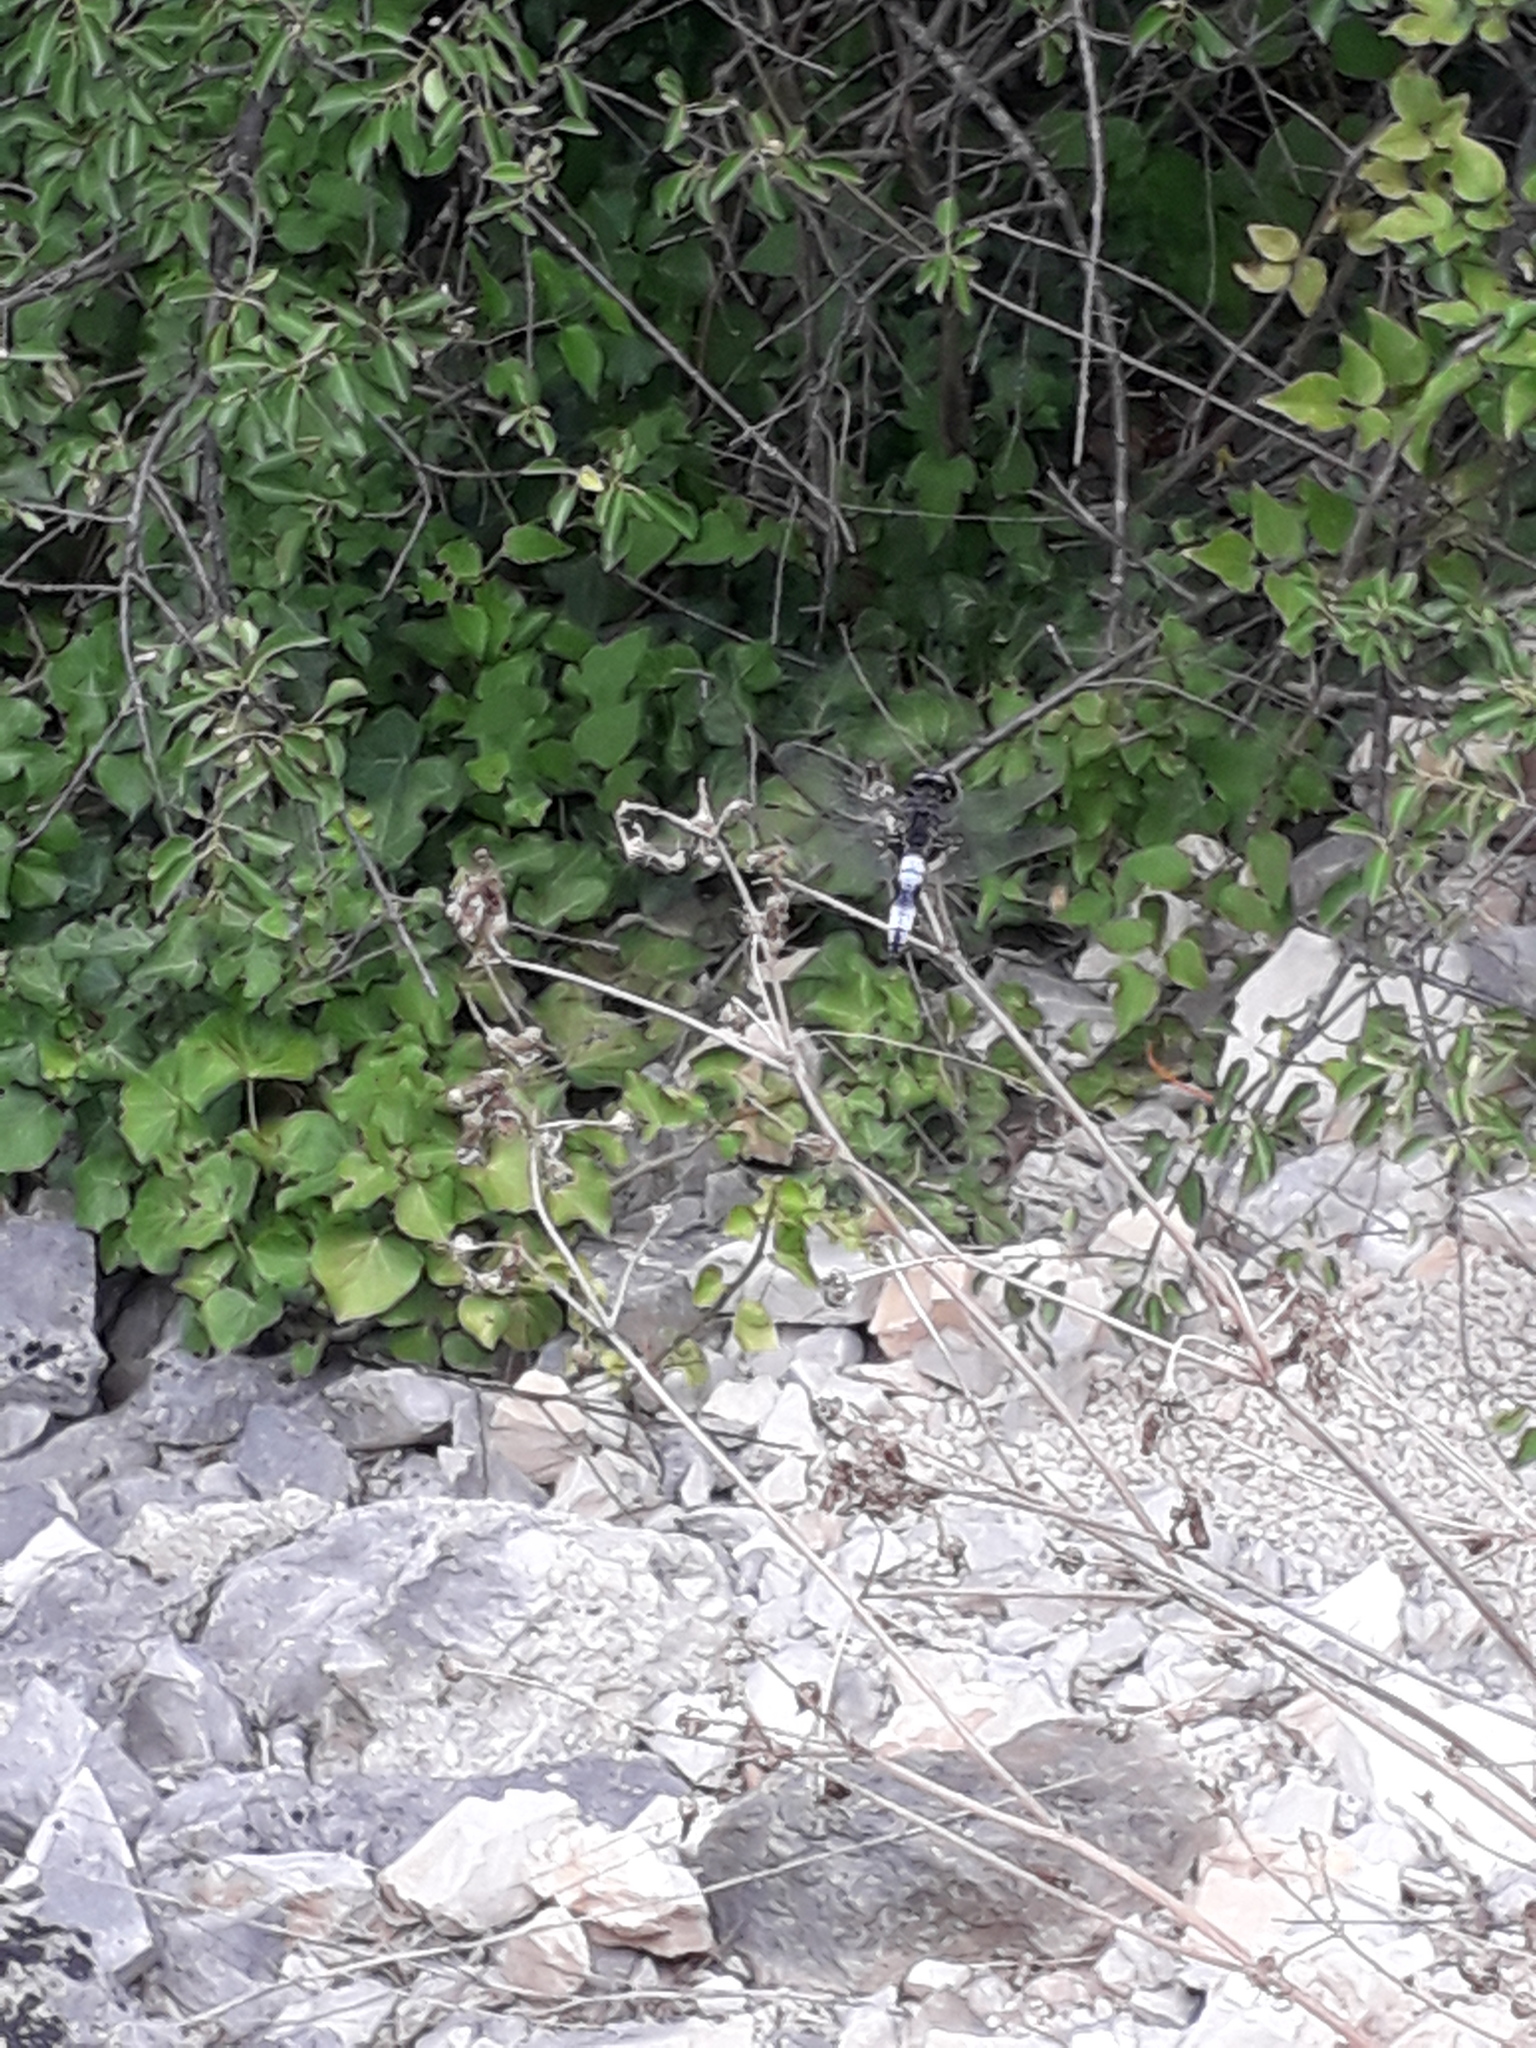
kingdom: Animalia
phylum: Arthropoda
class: Insecta
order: Odonata
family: Libellulidae
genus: Libellula
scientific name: Libellula fulva
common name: Blue chaser
